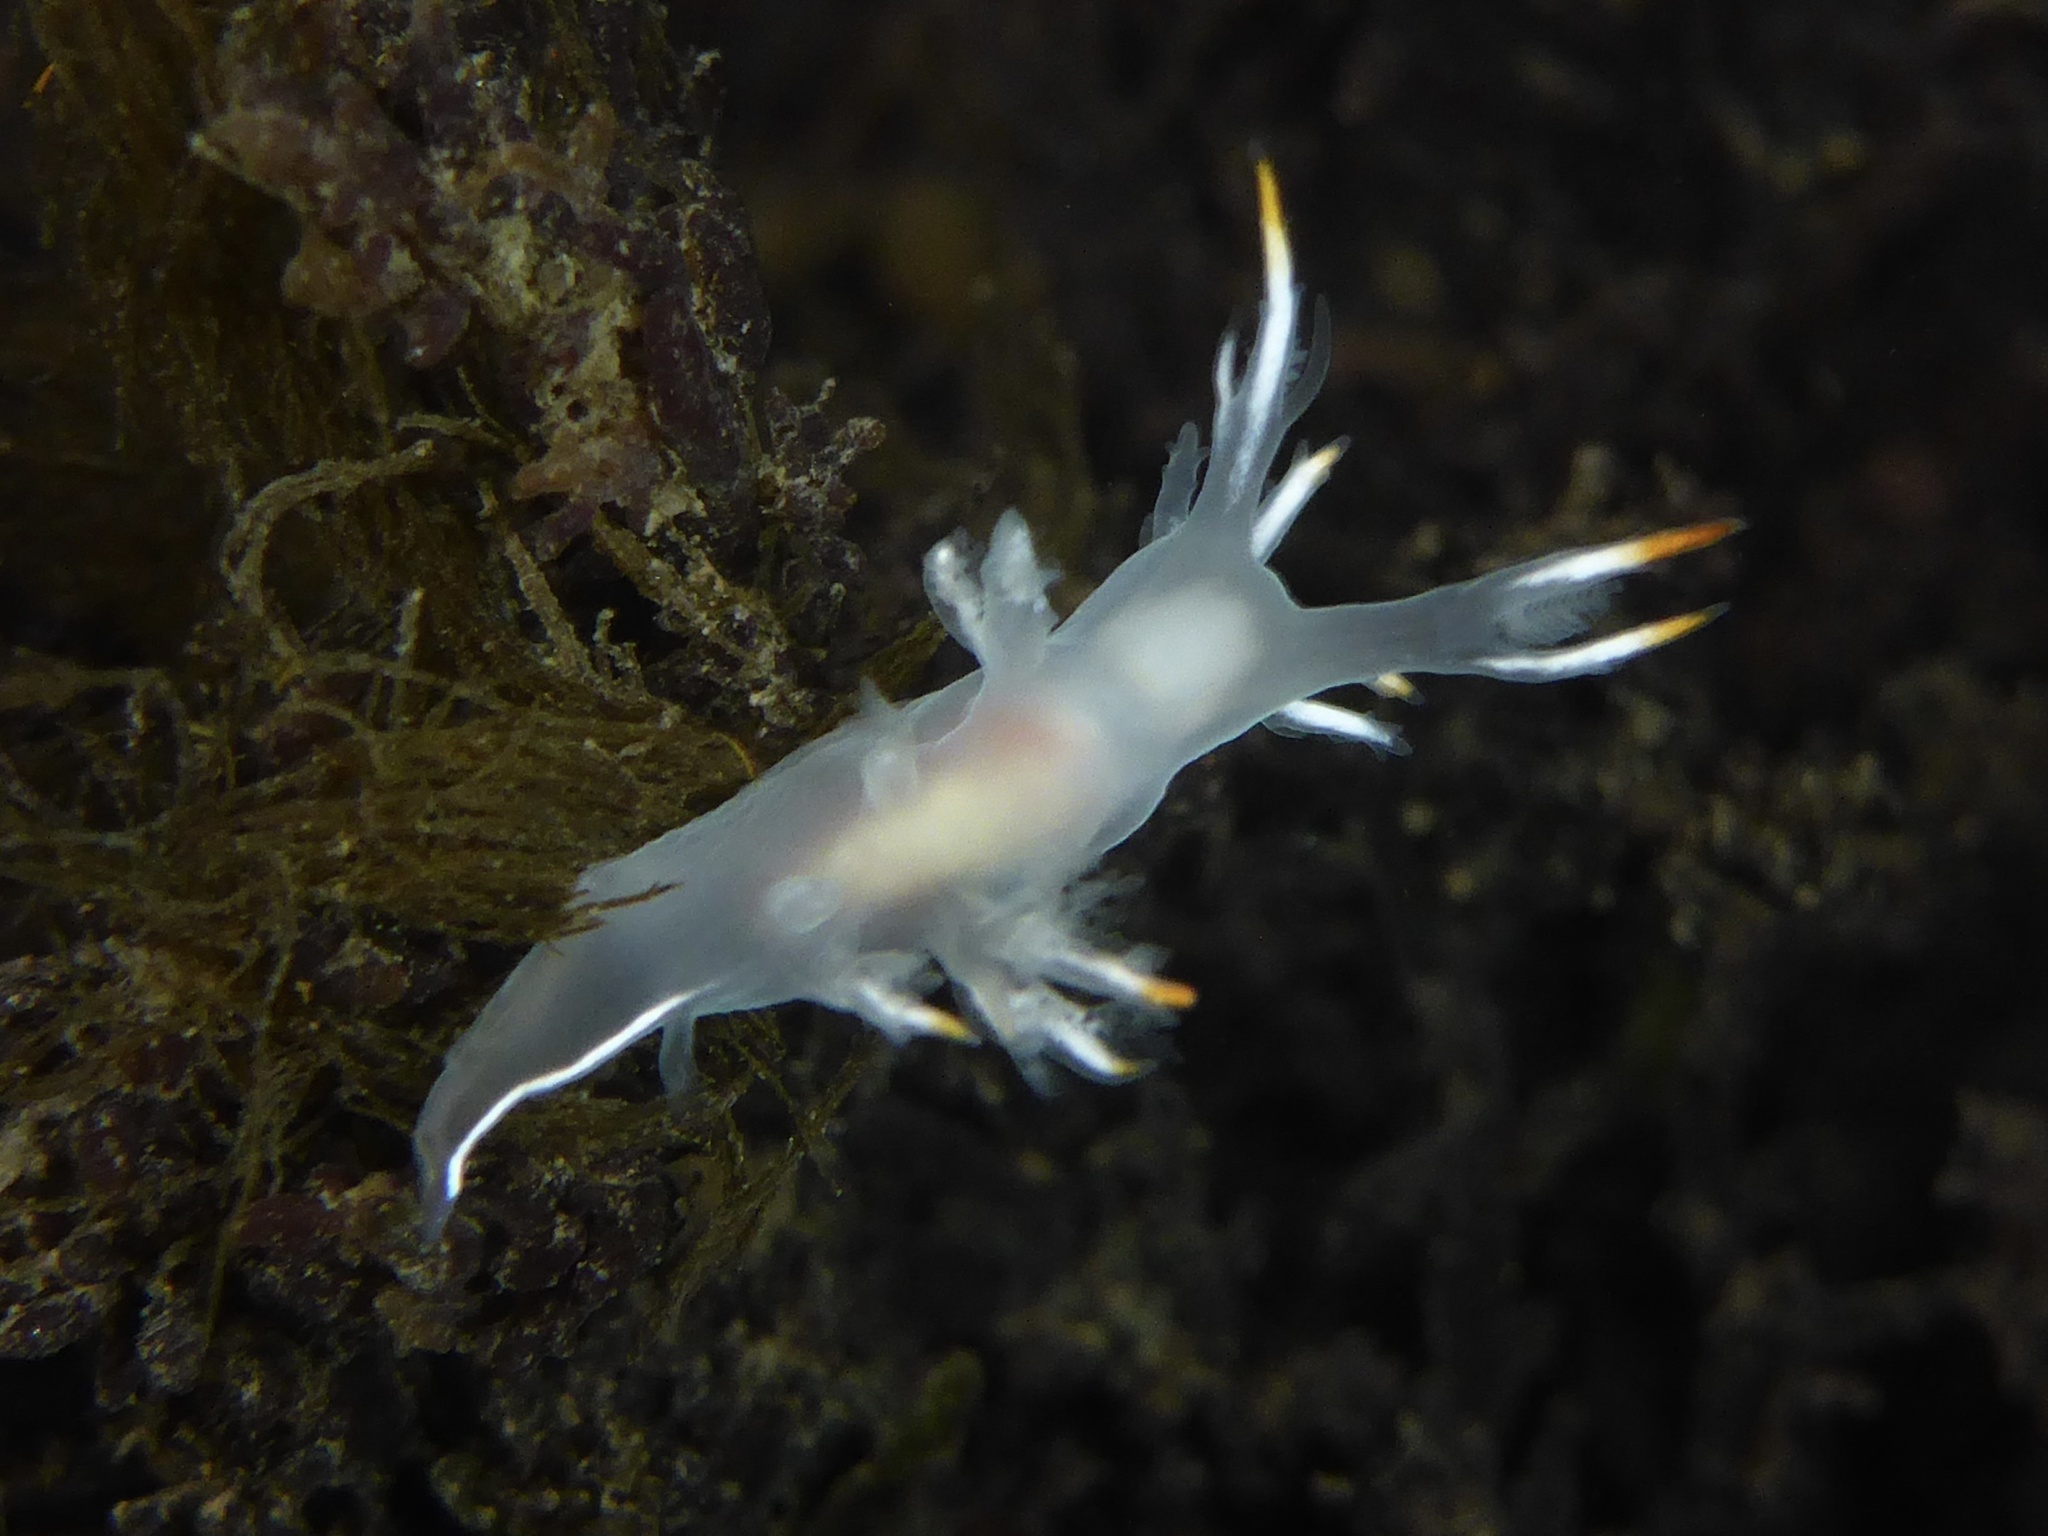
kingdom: Animalia
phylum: Mollusca
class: Gastropoda
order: Nudibranchia
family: Dendronotidae
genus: Dendronotus
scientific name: Dendronotus albus
